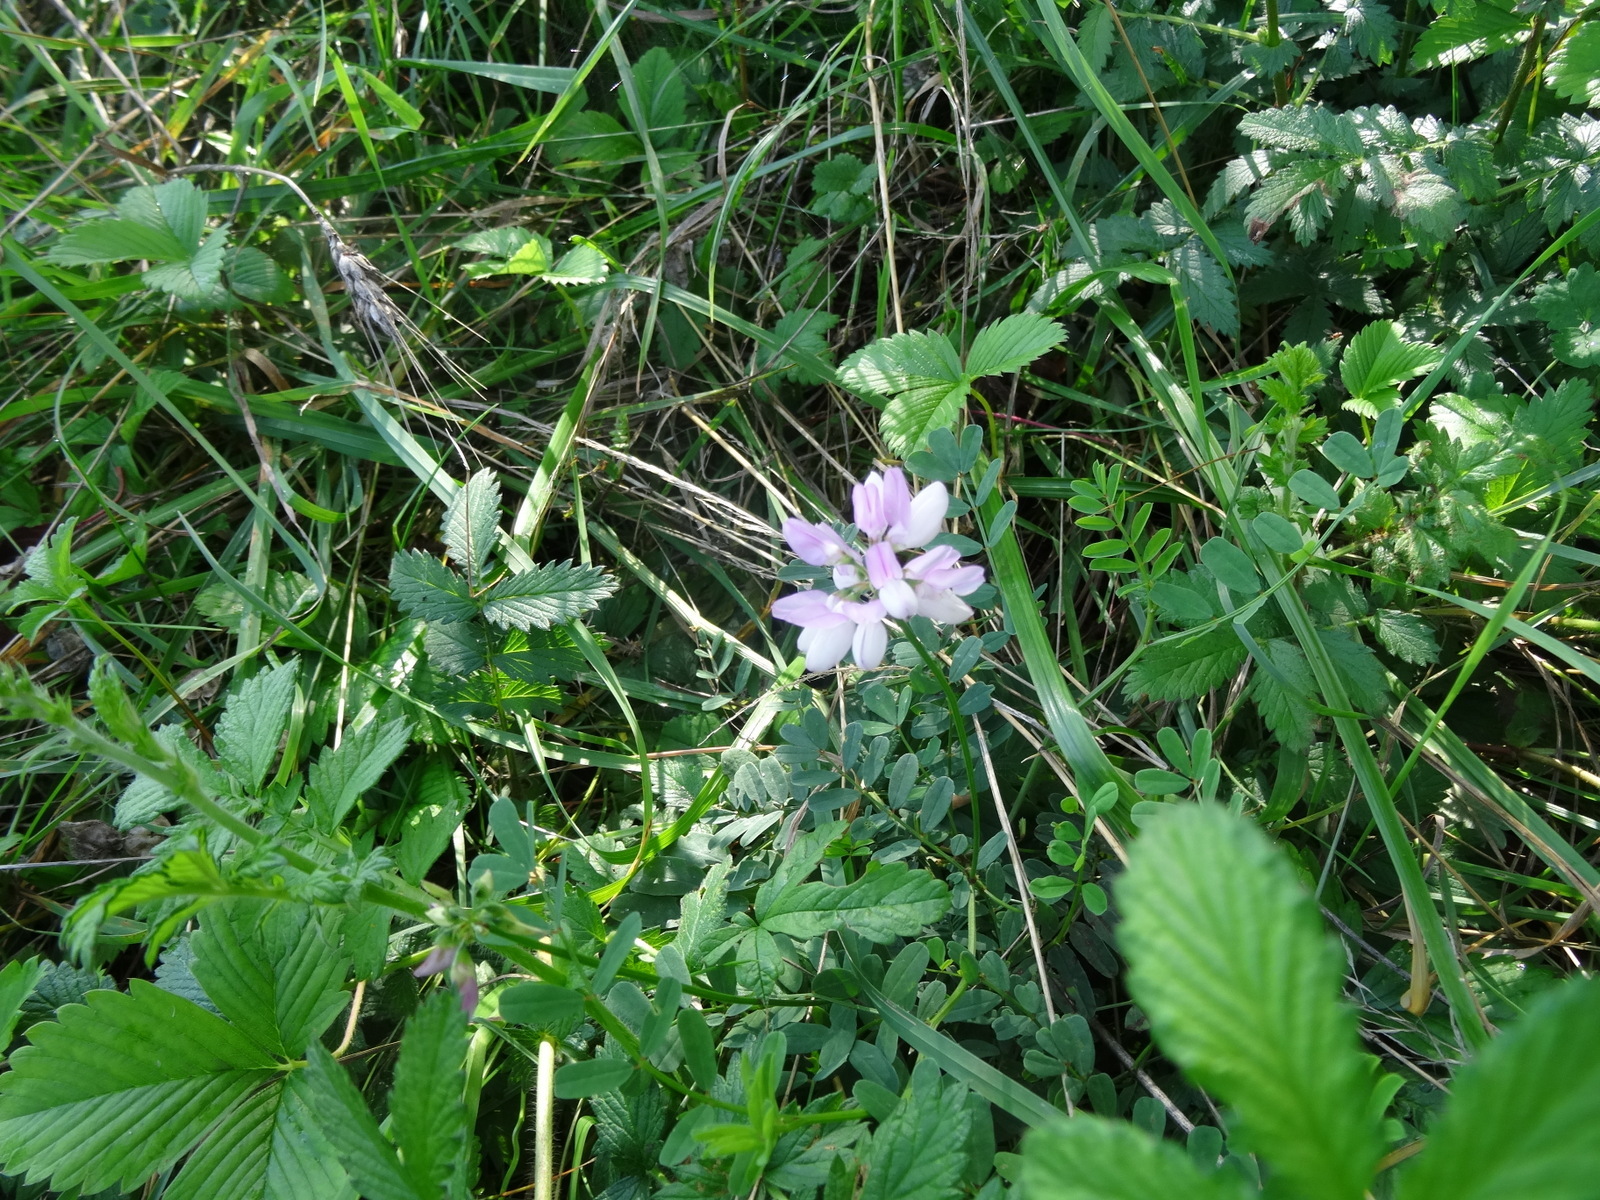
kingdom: Plantae
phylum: Tracheophyta
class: Magnoliopsida
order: Fabales
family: Fabaceae
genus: Coronilla
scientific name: Coronilla varia
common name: Crownvetch
